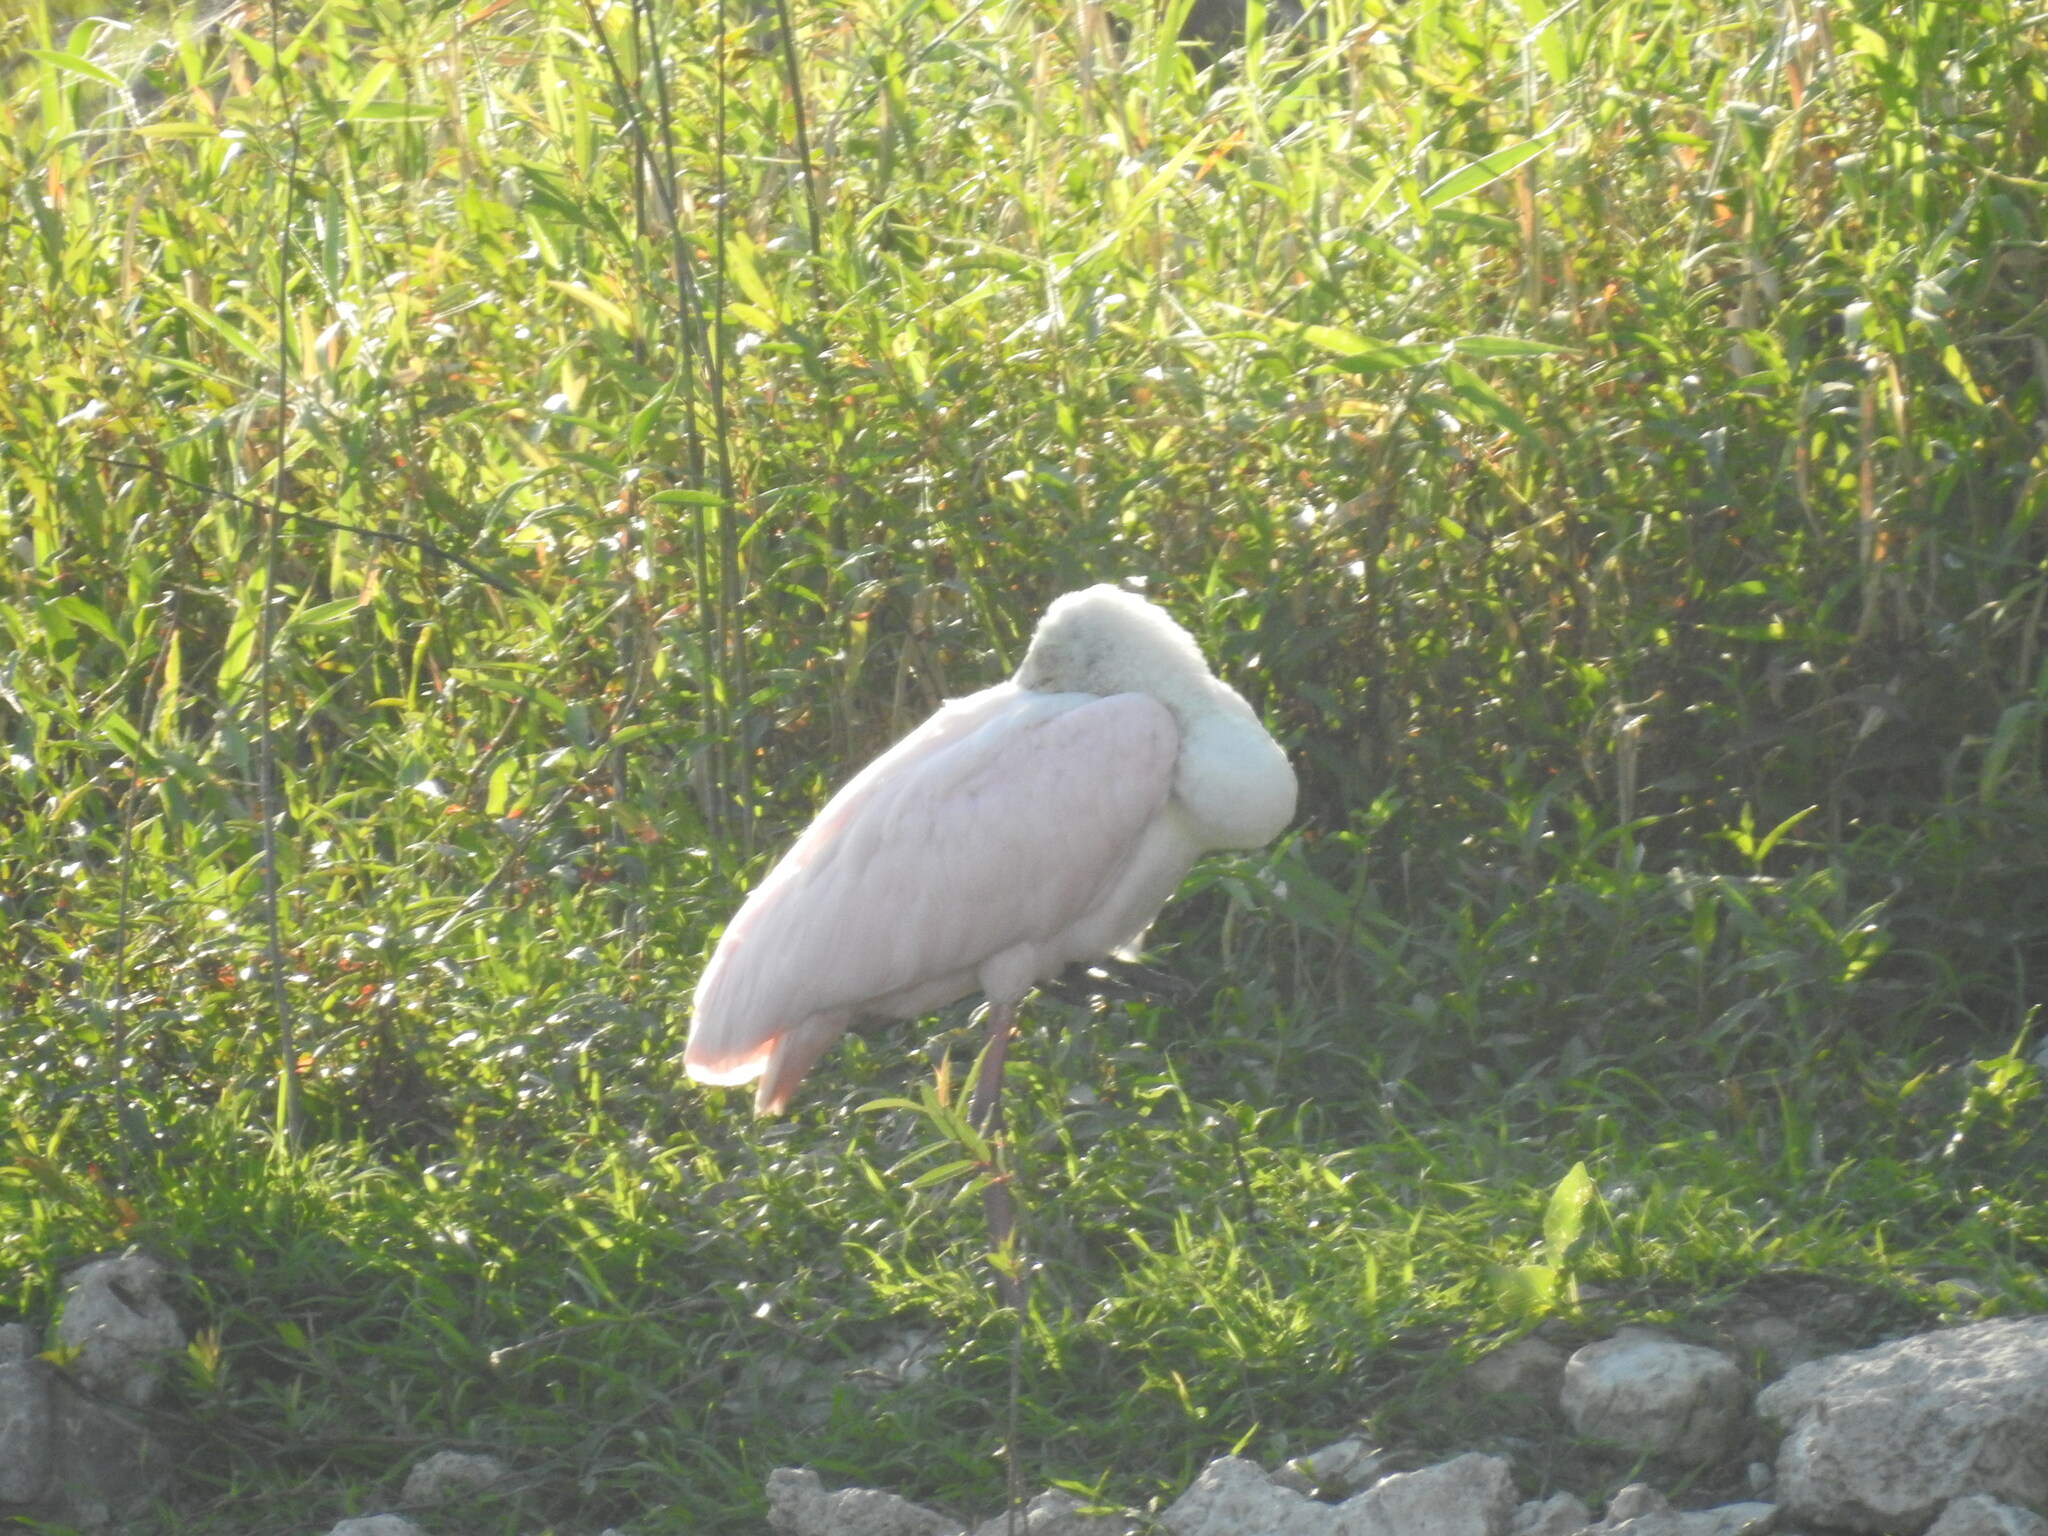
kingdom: Animalia
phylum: Chordata
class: Aves
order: Pelecaniformes
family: Threskiornithidae
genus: Platalea
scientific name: Platalea ajaja
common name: Roseate spoonbill
